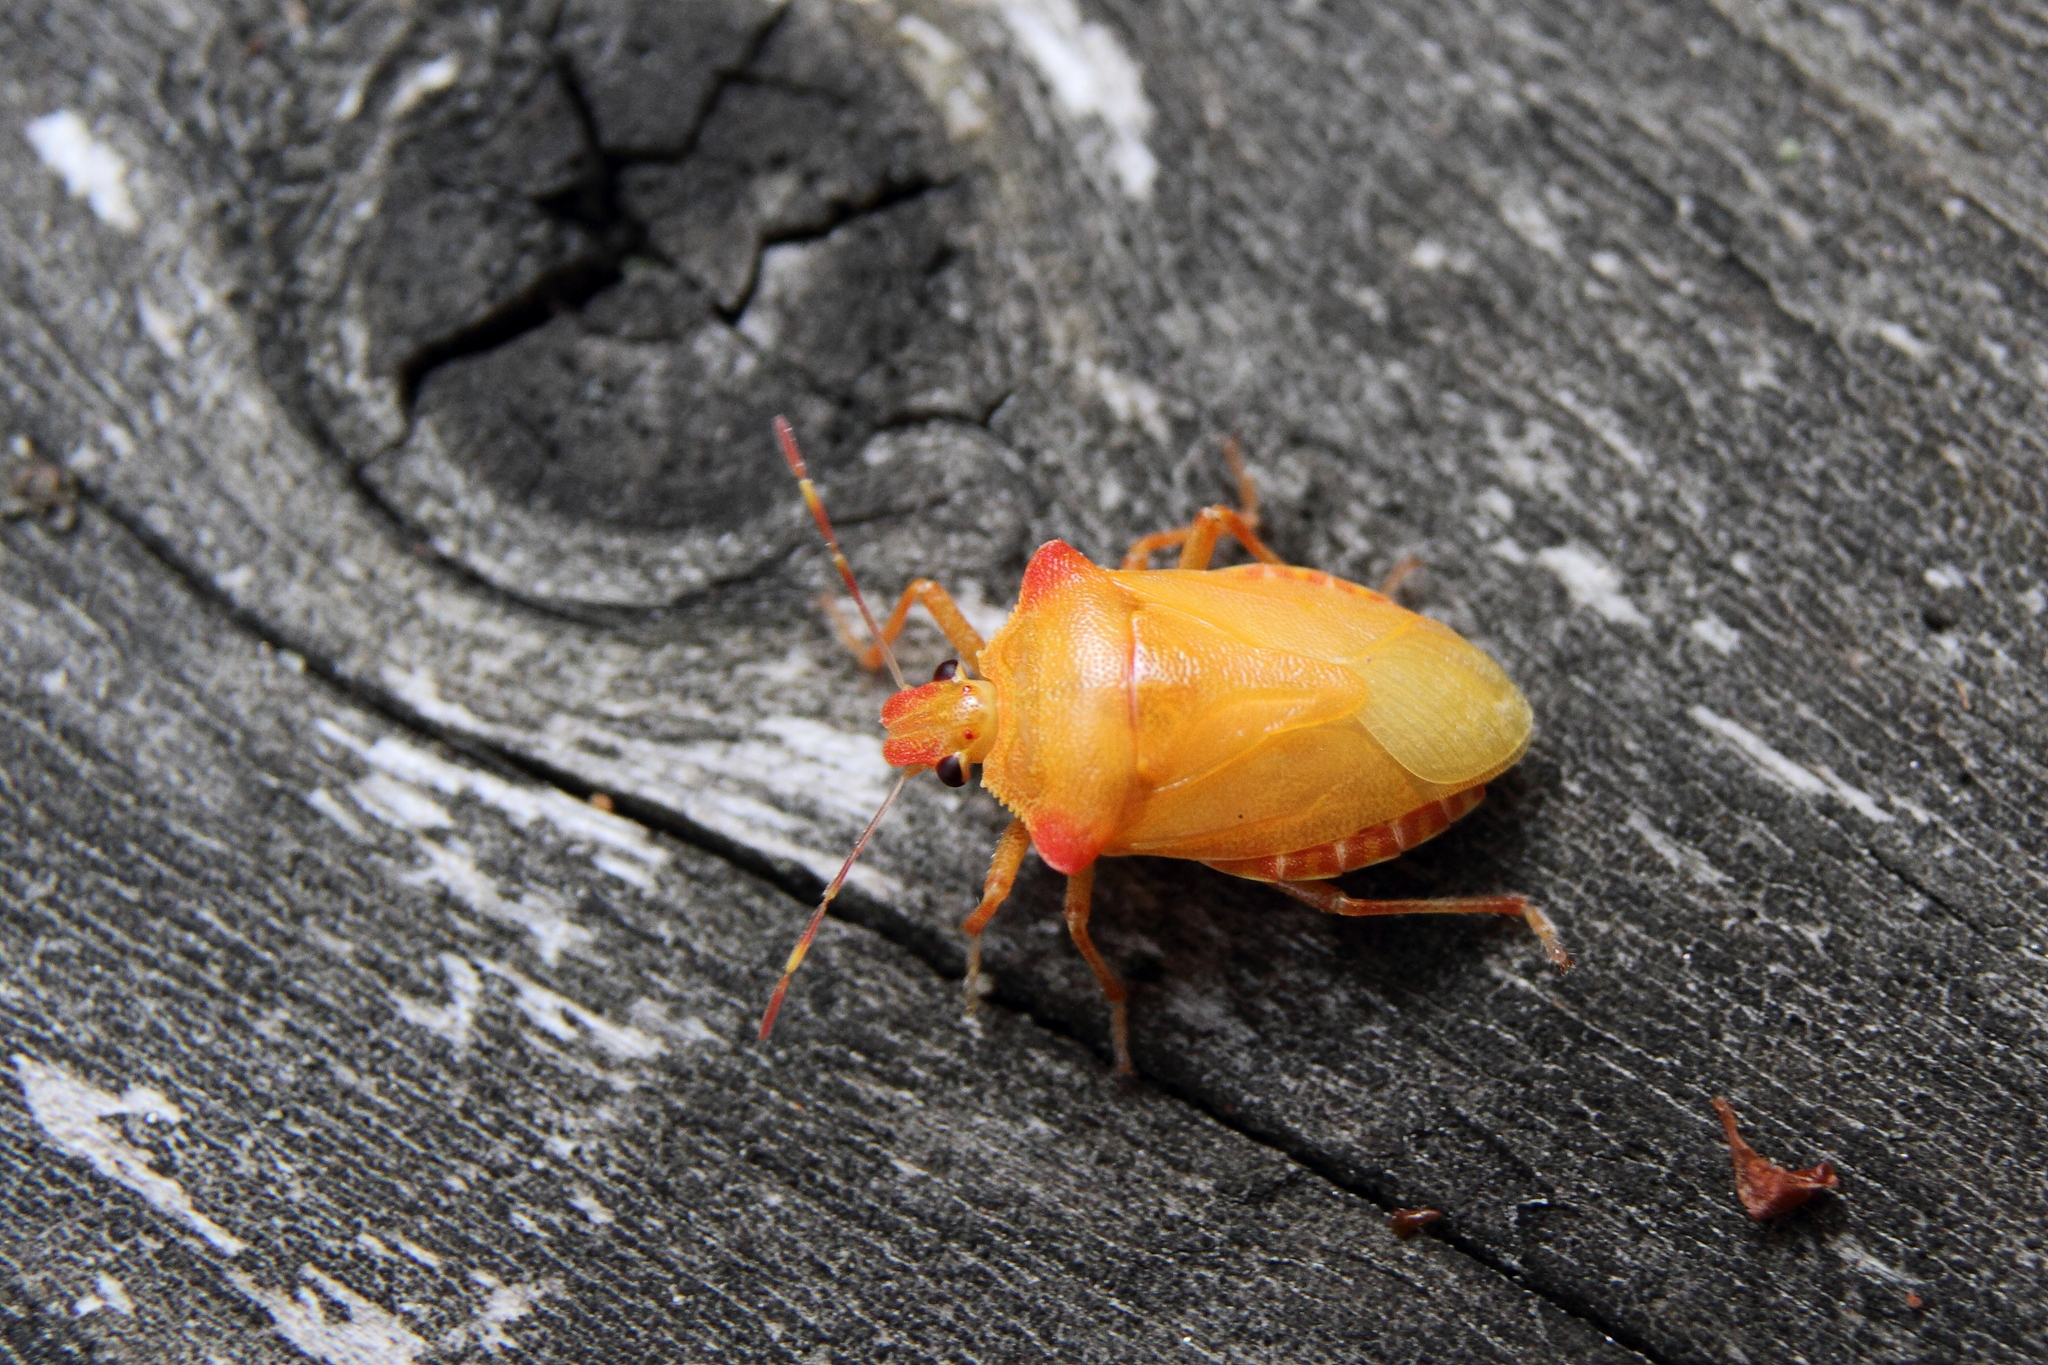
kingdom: Animalia
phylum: Arthropoda
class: Insecta
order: Hemiptera
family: Pentatomidae
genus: Troilus
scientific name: Troilus luridus
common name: Bronze shieldbug
